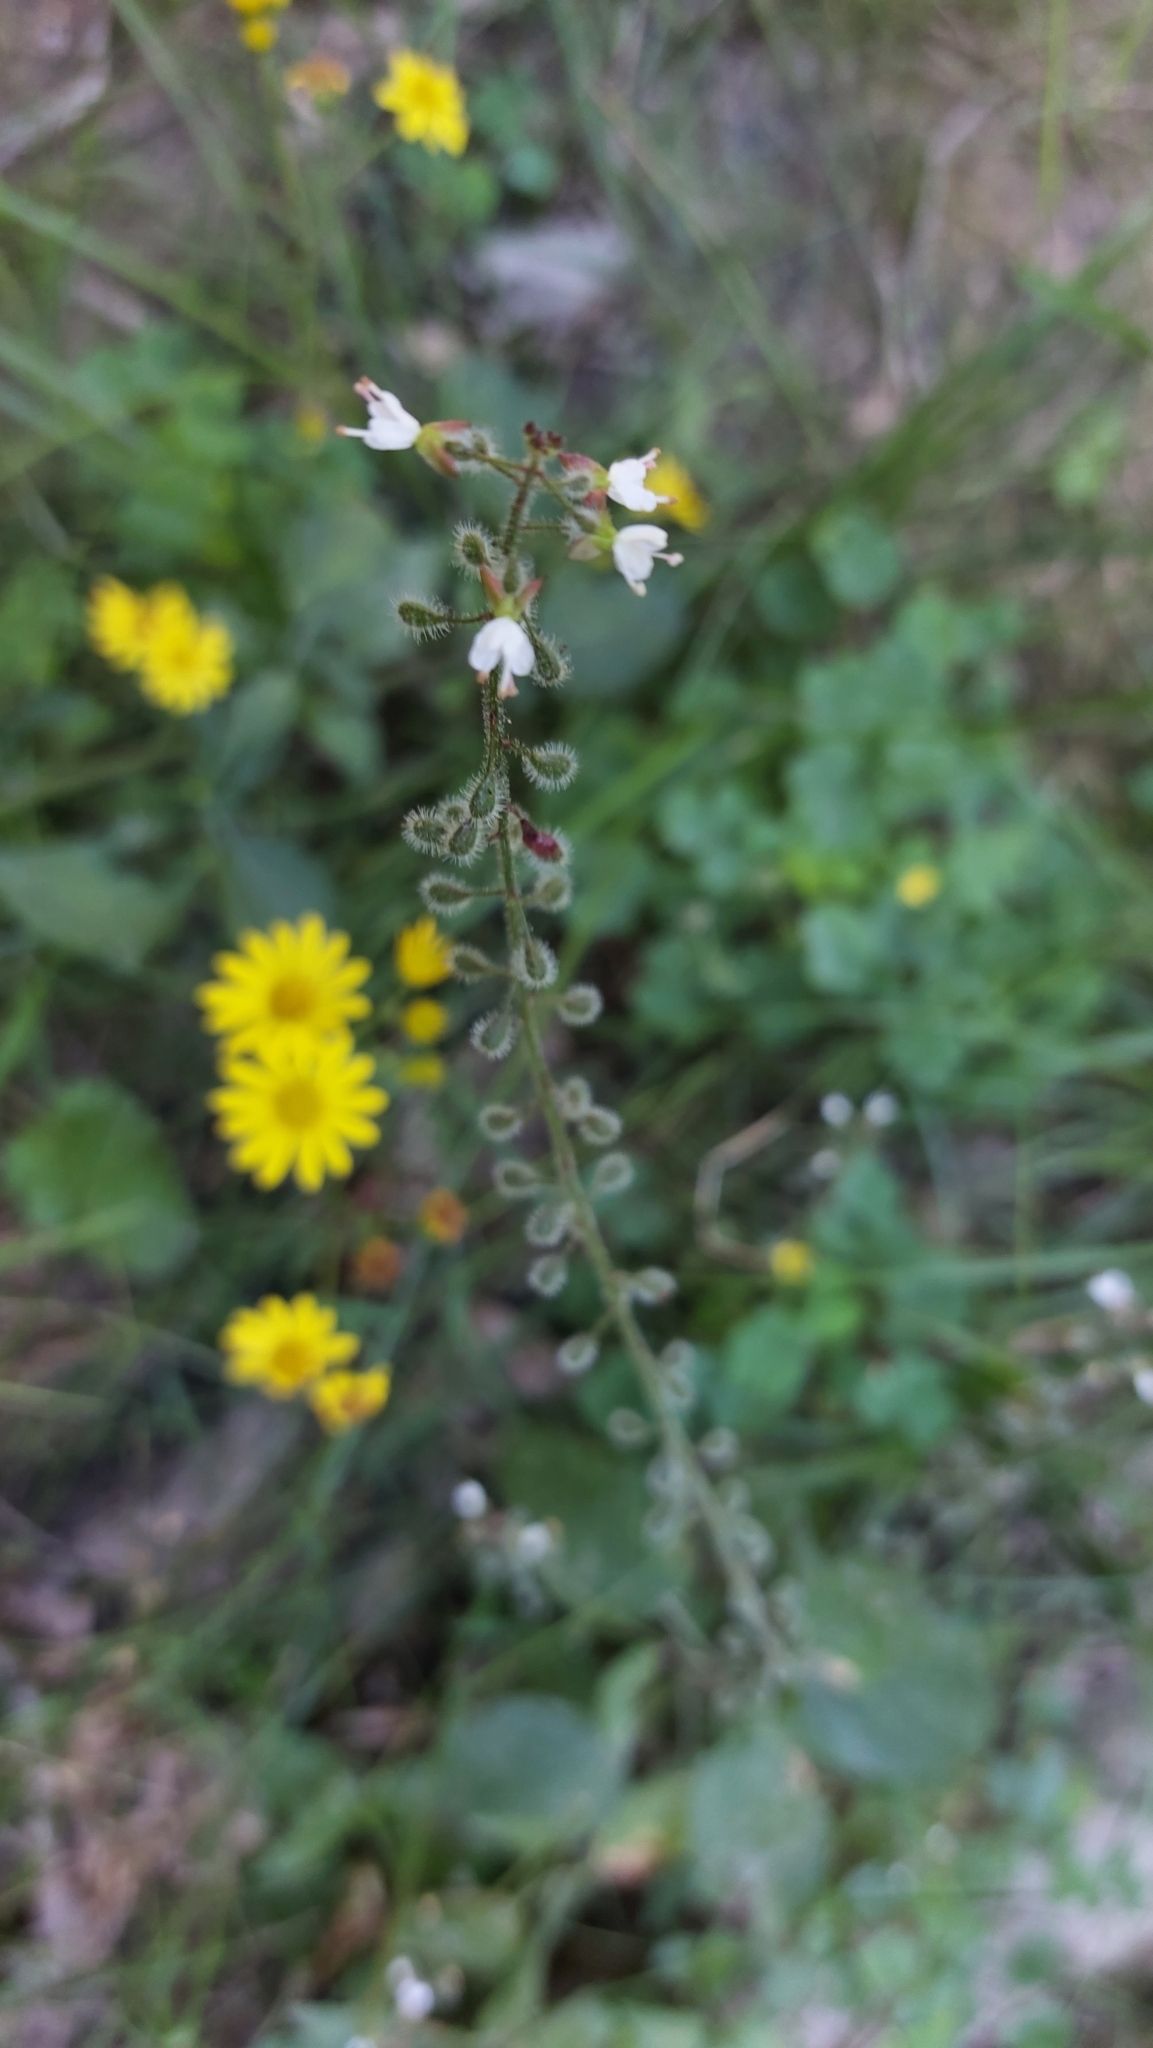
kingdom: Plantae
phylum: Tracheophyta
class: Magnoliopsida
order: Myrtales
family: Onagraceae
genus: Circaea
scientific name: Circaea lutetiana
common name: Enchanter's-nightshade
